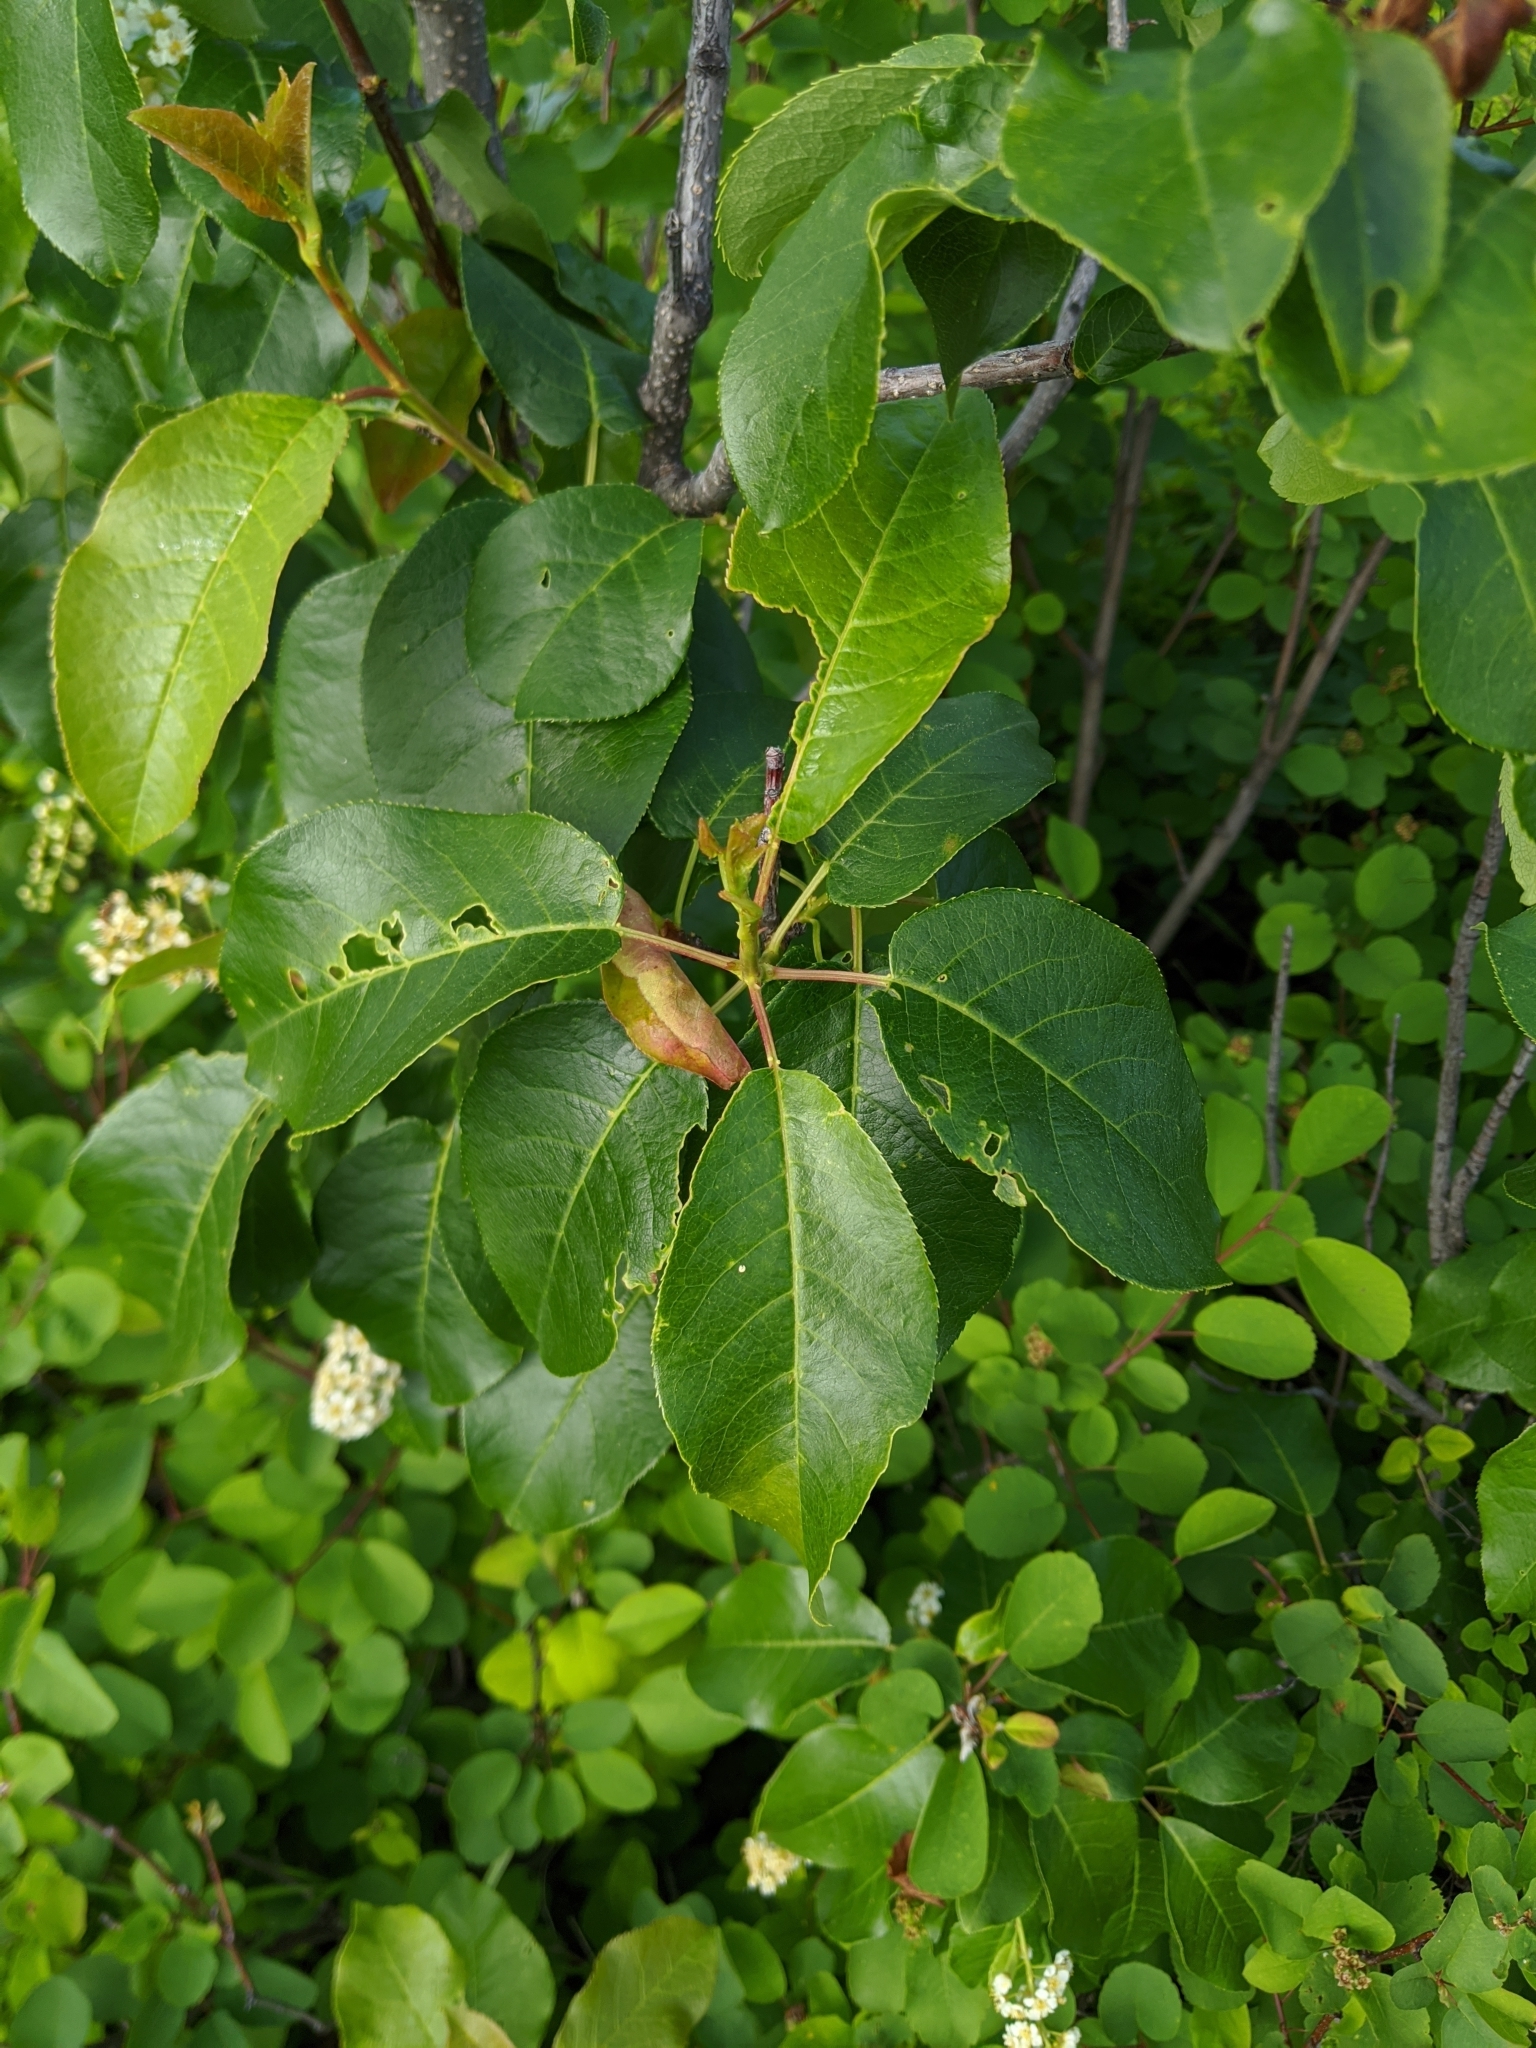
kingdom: Plantae
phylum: Tracheophyta
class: Magnoliopsida
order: Rosales
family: Rosaceae
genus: Prunus
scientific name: Prunus virginiana
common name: Chokecherry
